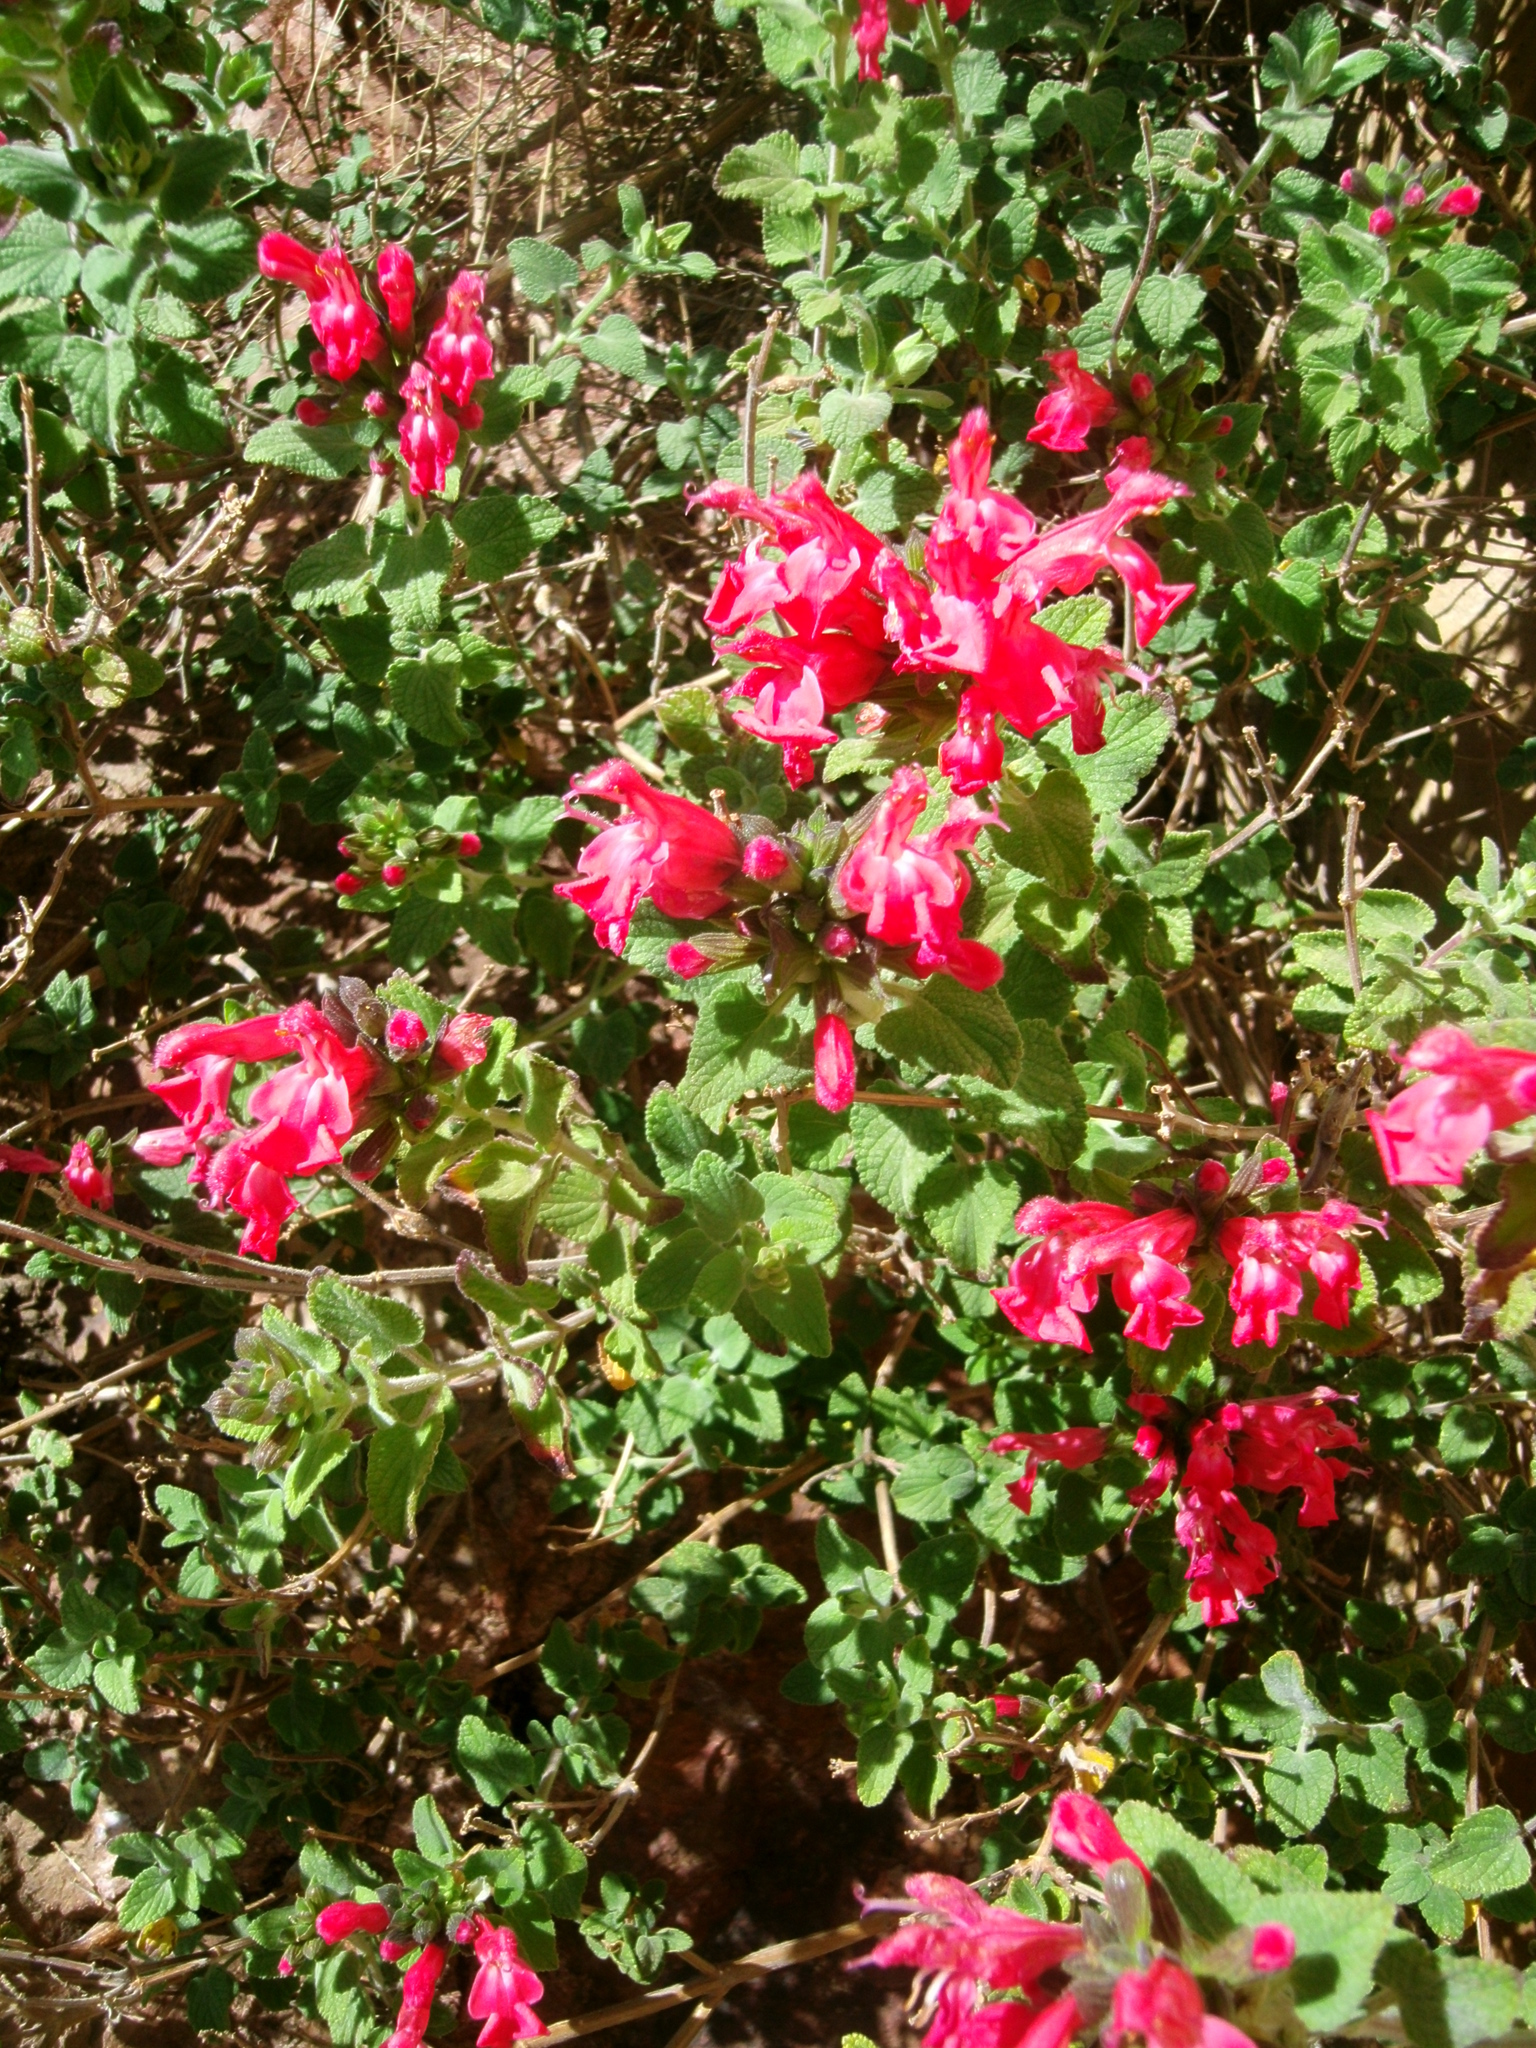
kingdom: Plantae
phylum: Tracheophyta
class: Magnoliopsida
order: Lamiales
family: Lamiaceae
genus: Salvia
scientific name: Salvia microphylla
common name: Baby sage
